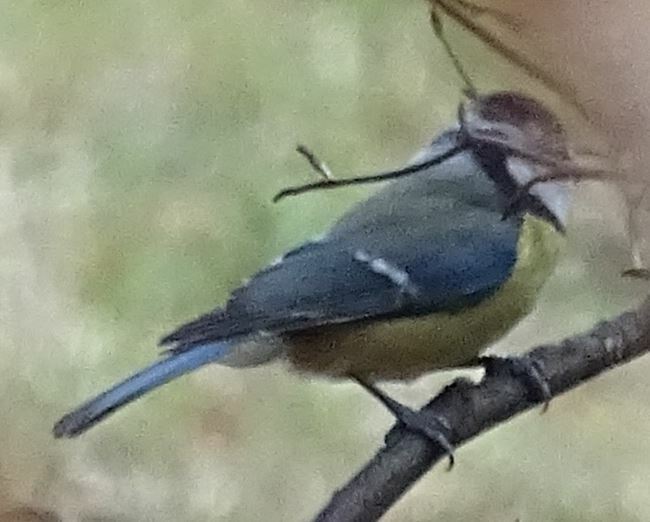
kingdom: Animalia
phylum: Chordata
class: Aves
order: Passeriformes
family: Paridae
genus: Cyanistes
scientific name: Cyanistes caeruleus
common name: Eurasian blue tit
